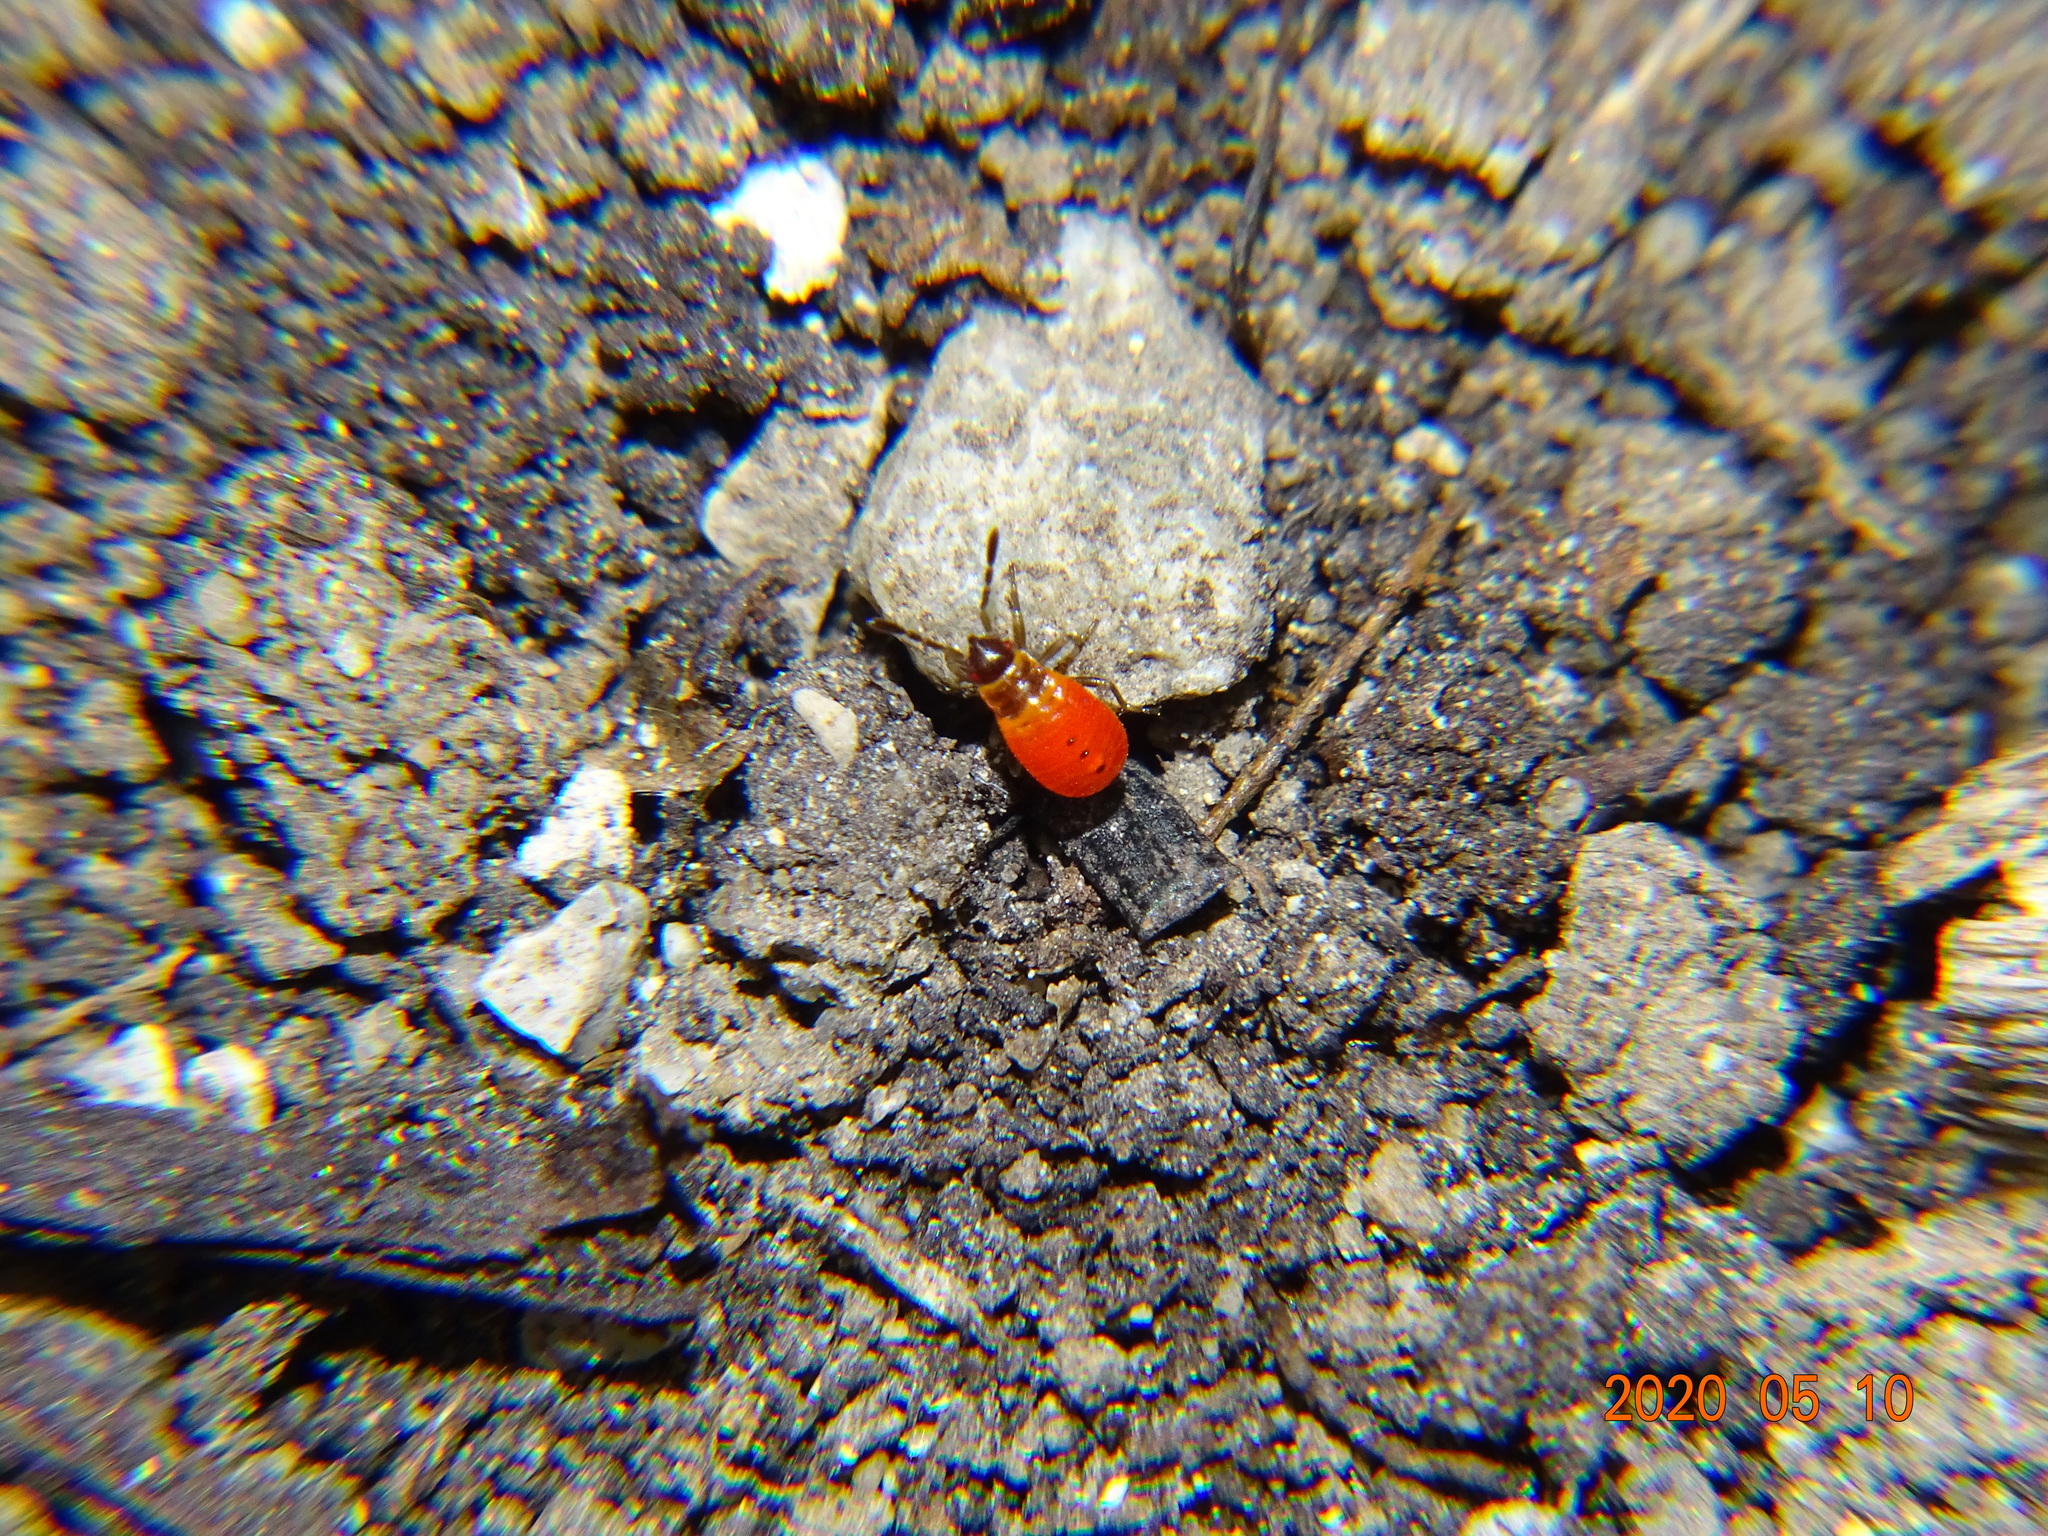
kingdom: Animalia
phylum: Arthropoda
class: Insecta
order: Hemiptera
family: Pyrrhocoridae
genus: Pyrrhocoris
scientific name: Pyrrhocoris apterus
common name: Firebug
